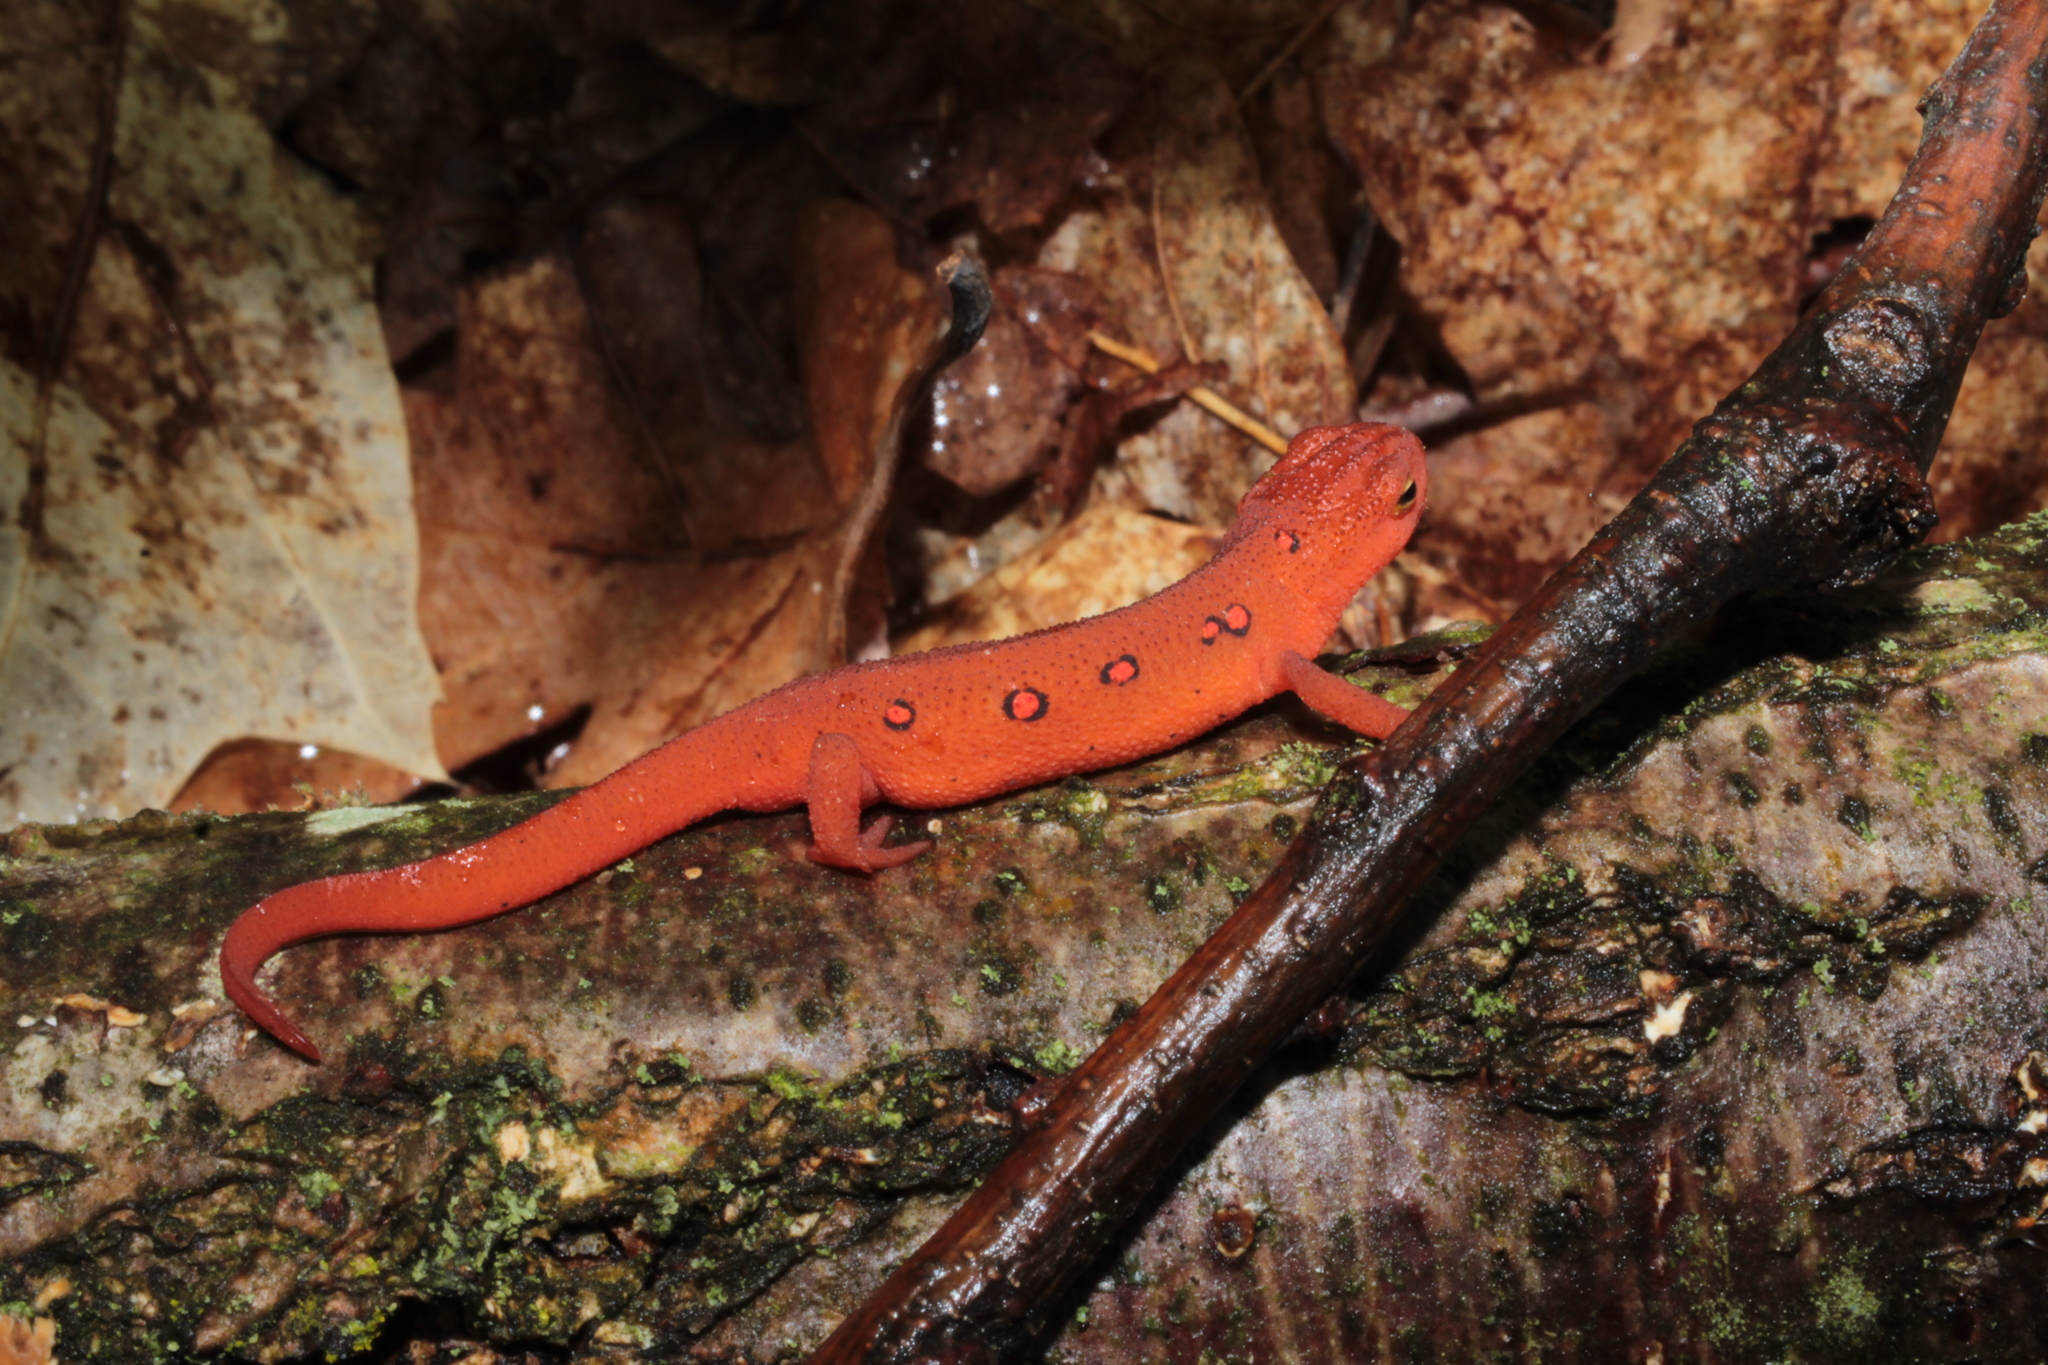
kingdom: Animalia
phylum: Chordata
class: Amphibia
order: Caudata
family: Salamandridae
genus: Notophthalmus
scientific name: Notophthalmus viridescens
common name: Eastern newt
